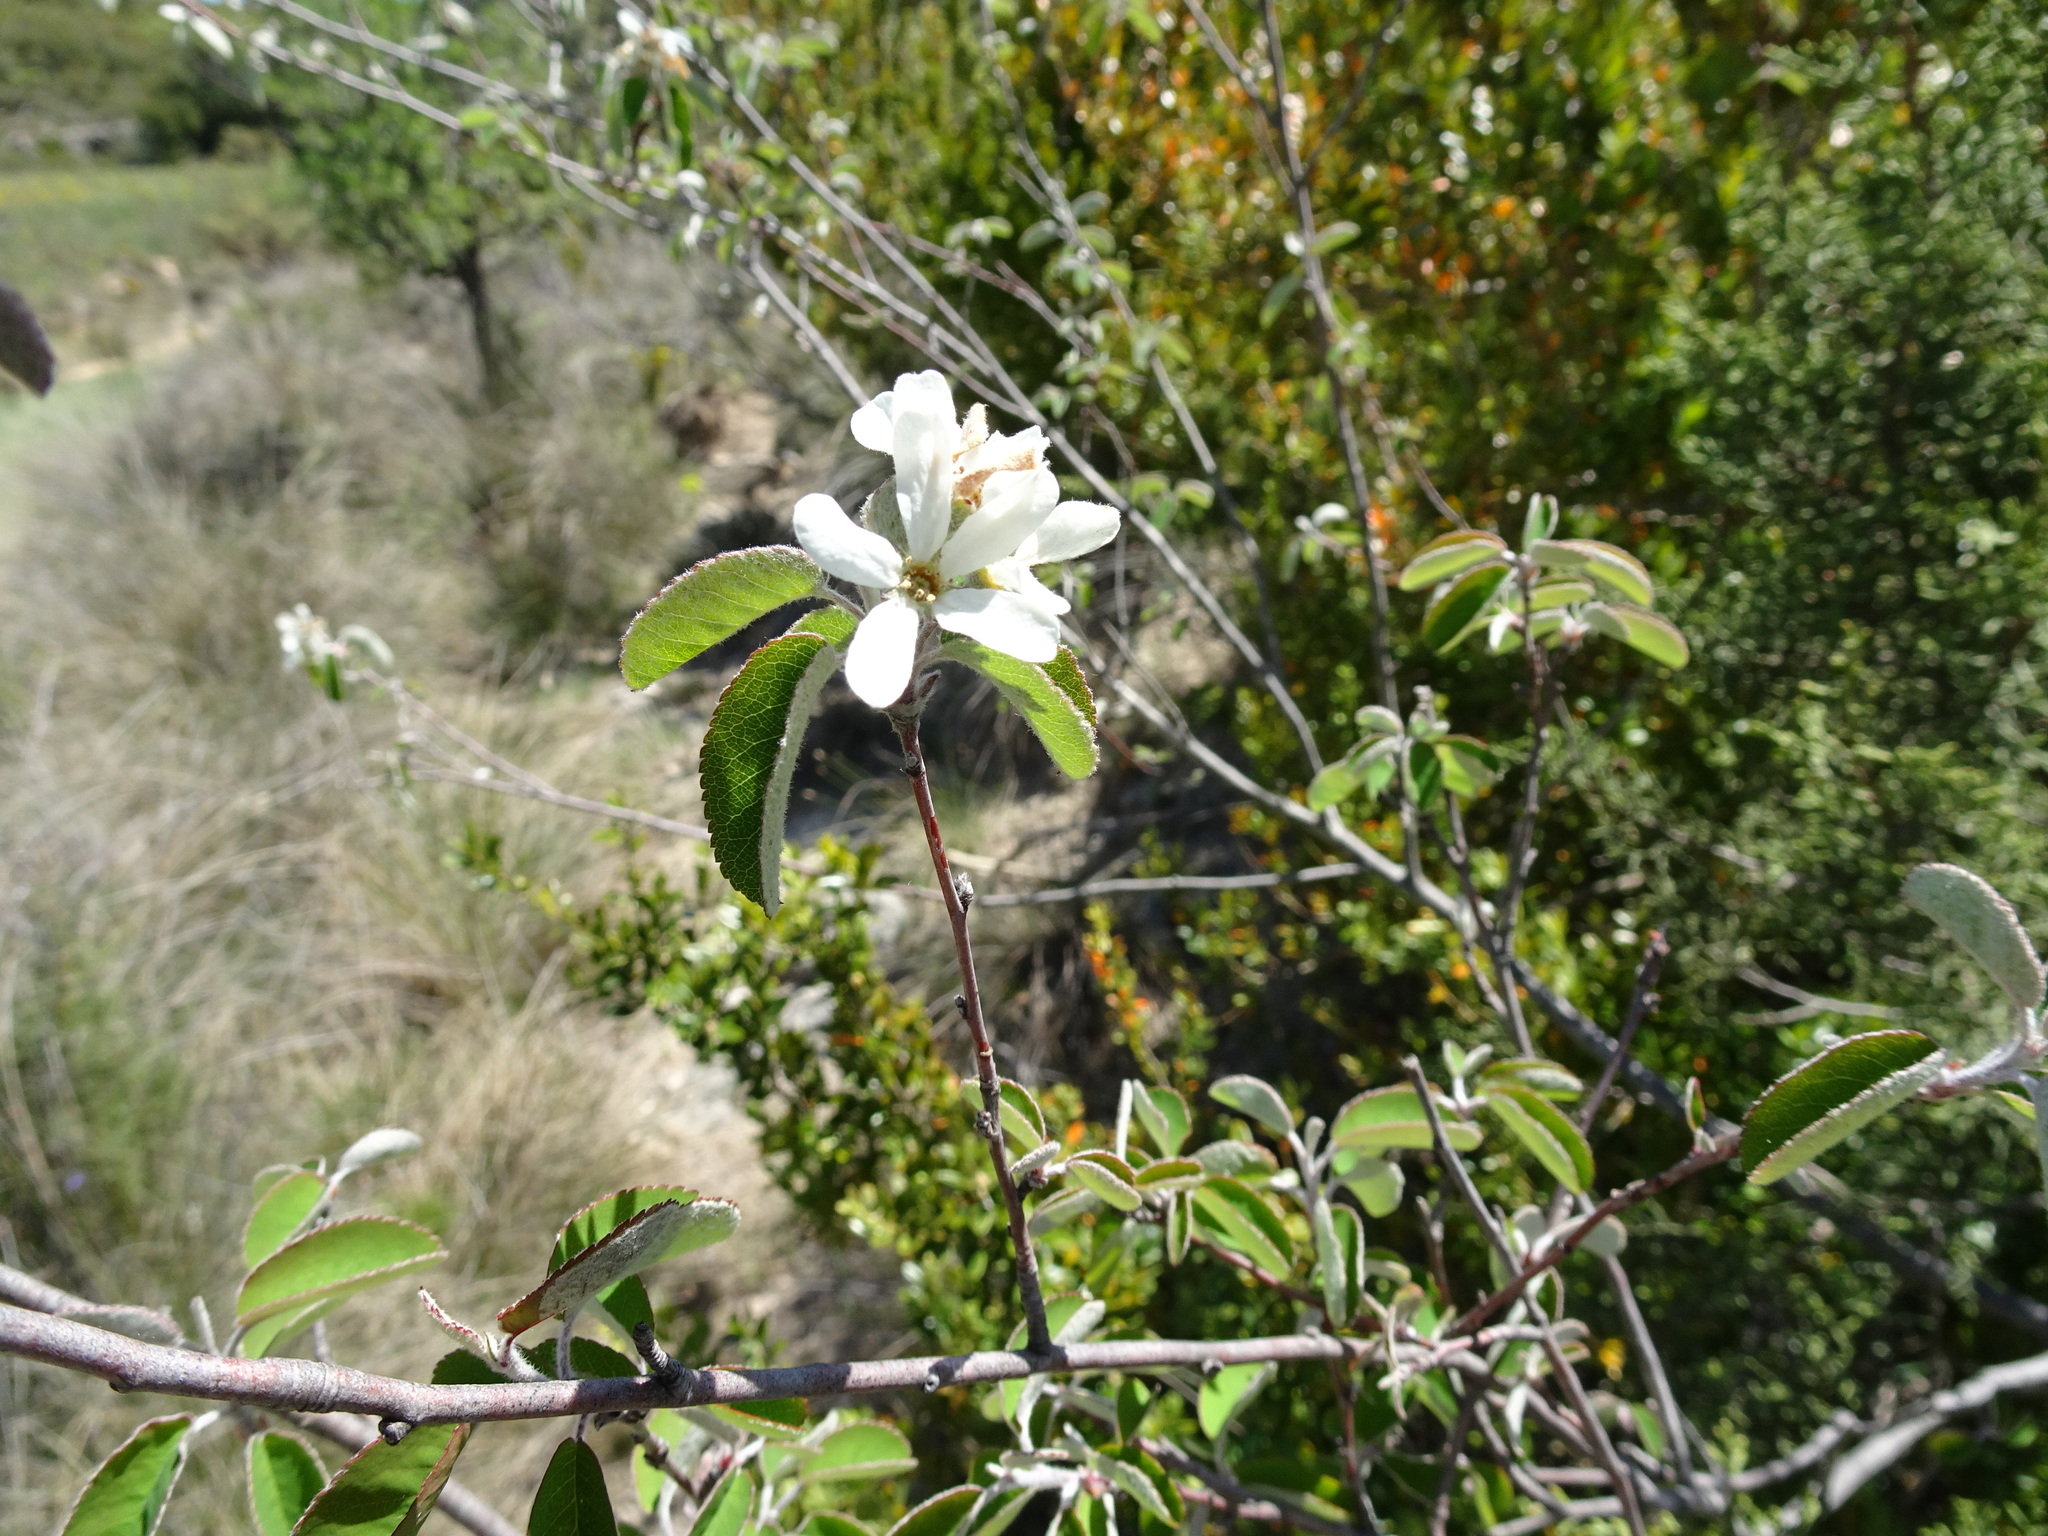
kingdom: Plantae
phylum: Tracheophyta
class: Magnoliopsida
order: Rosales
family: Rosaceae
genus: Amelanchier
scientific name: Amelanchier ovalis
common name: Serviceberry
